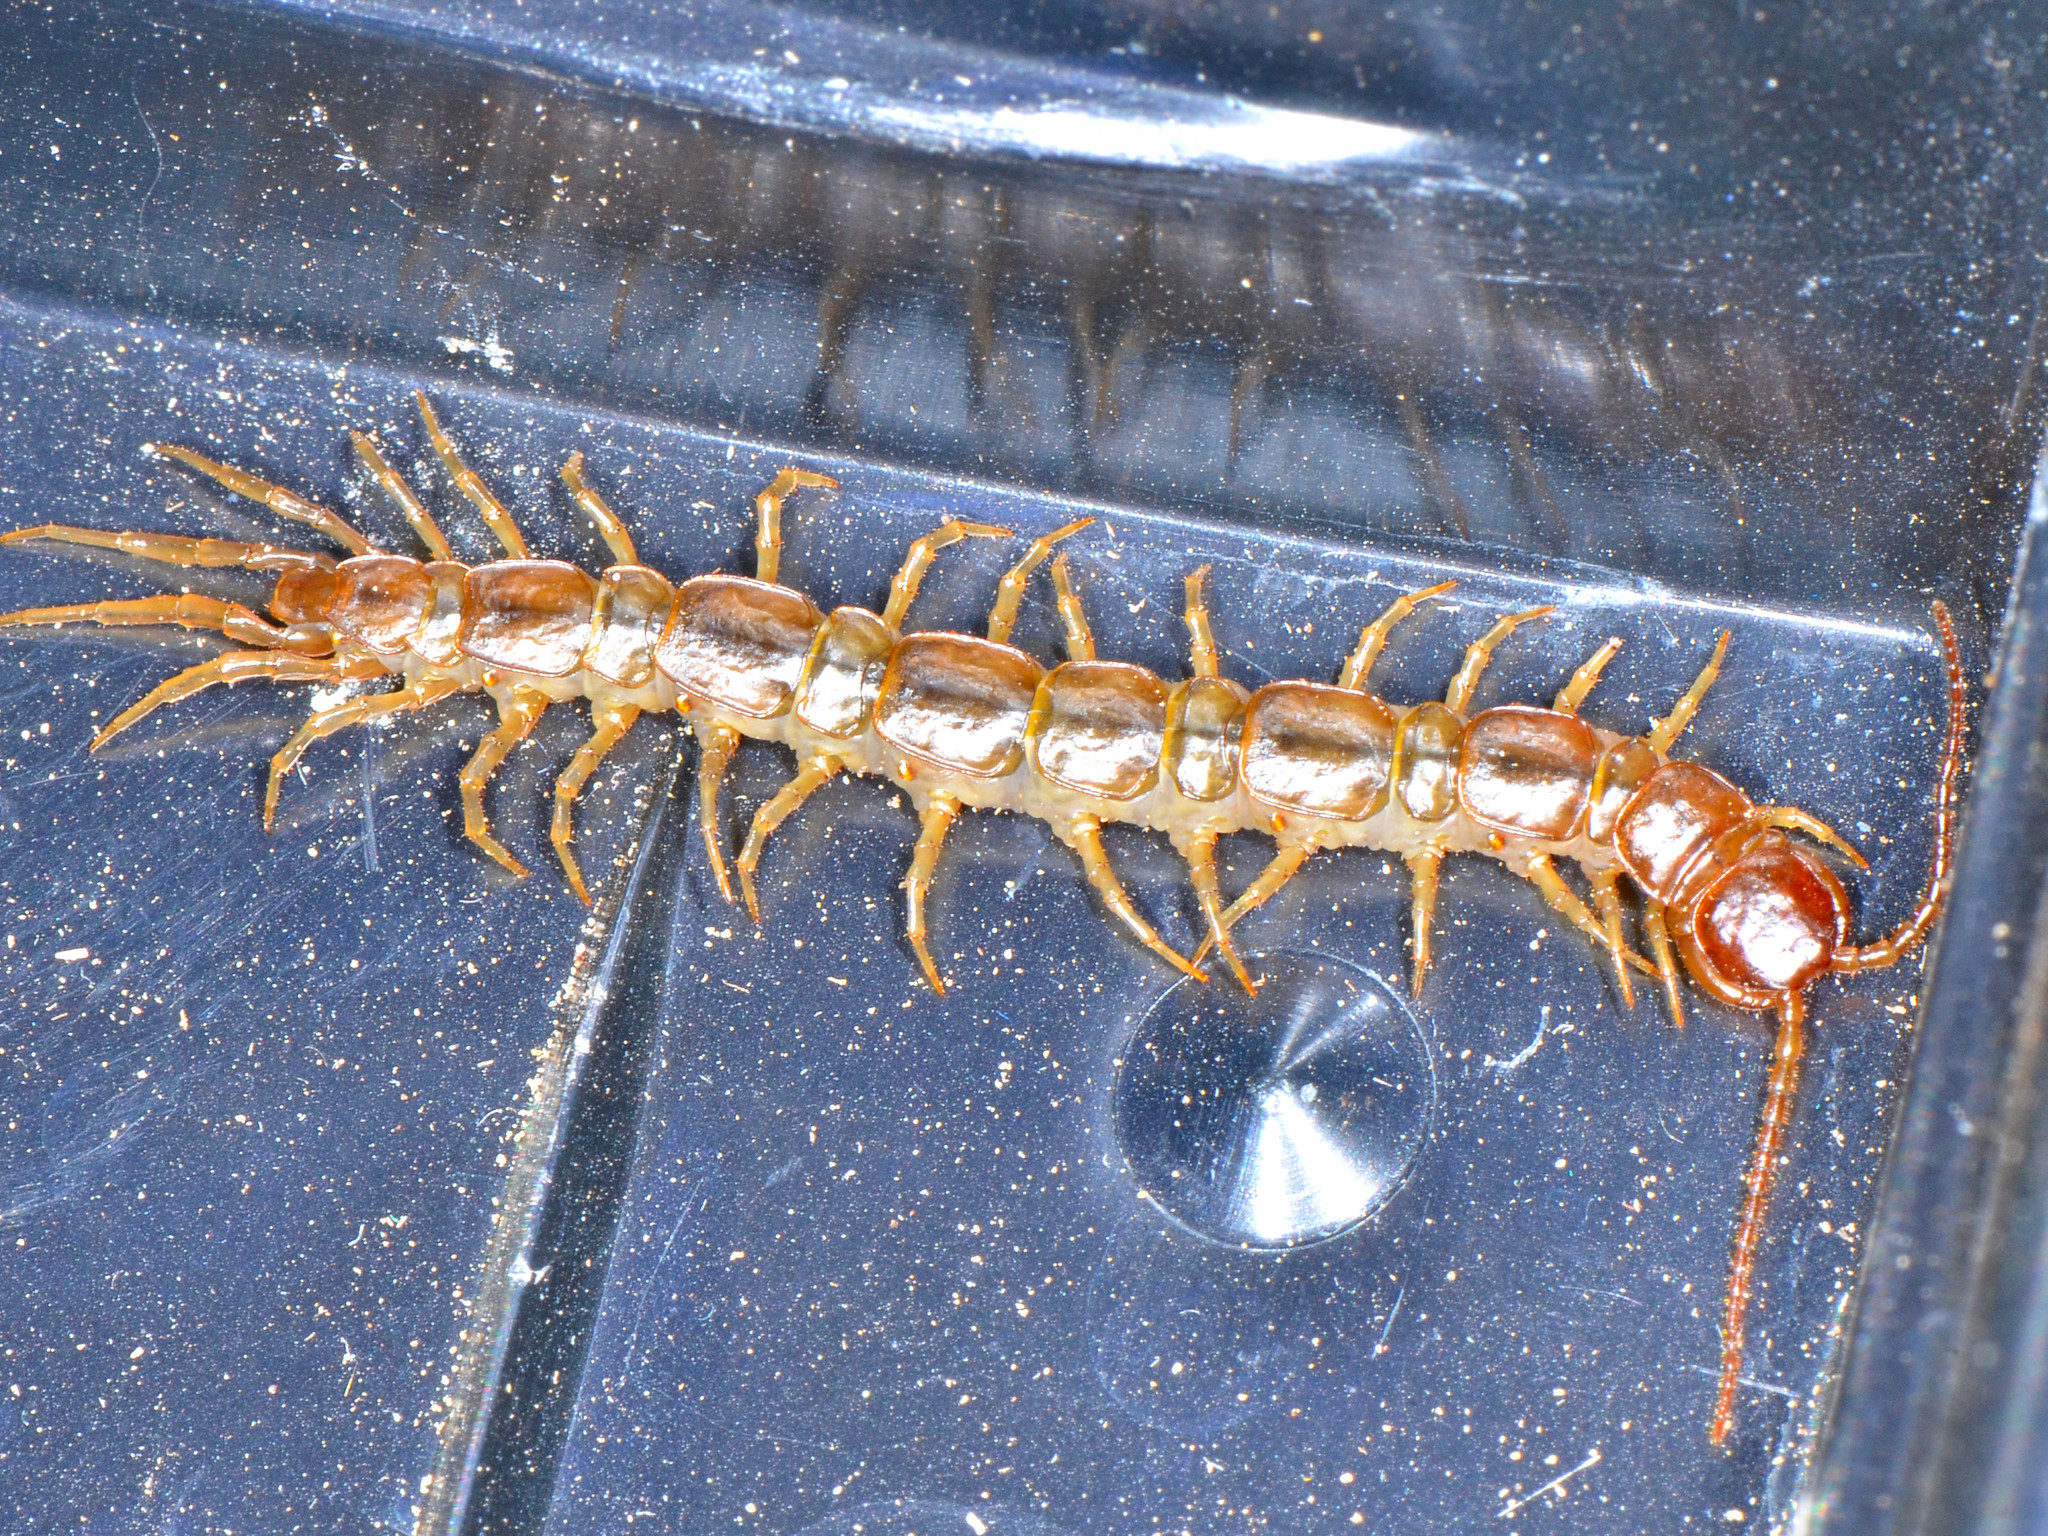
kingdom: Animalia
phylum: Arthropoda
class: Chilopoda
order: Lithobiomorpha
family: Lithobiidae
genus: Pseudolithobius
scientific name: Pseudolithobius megaloporus
